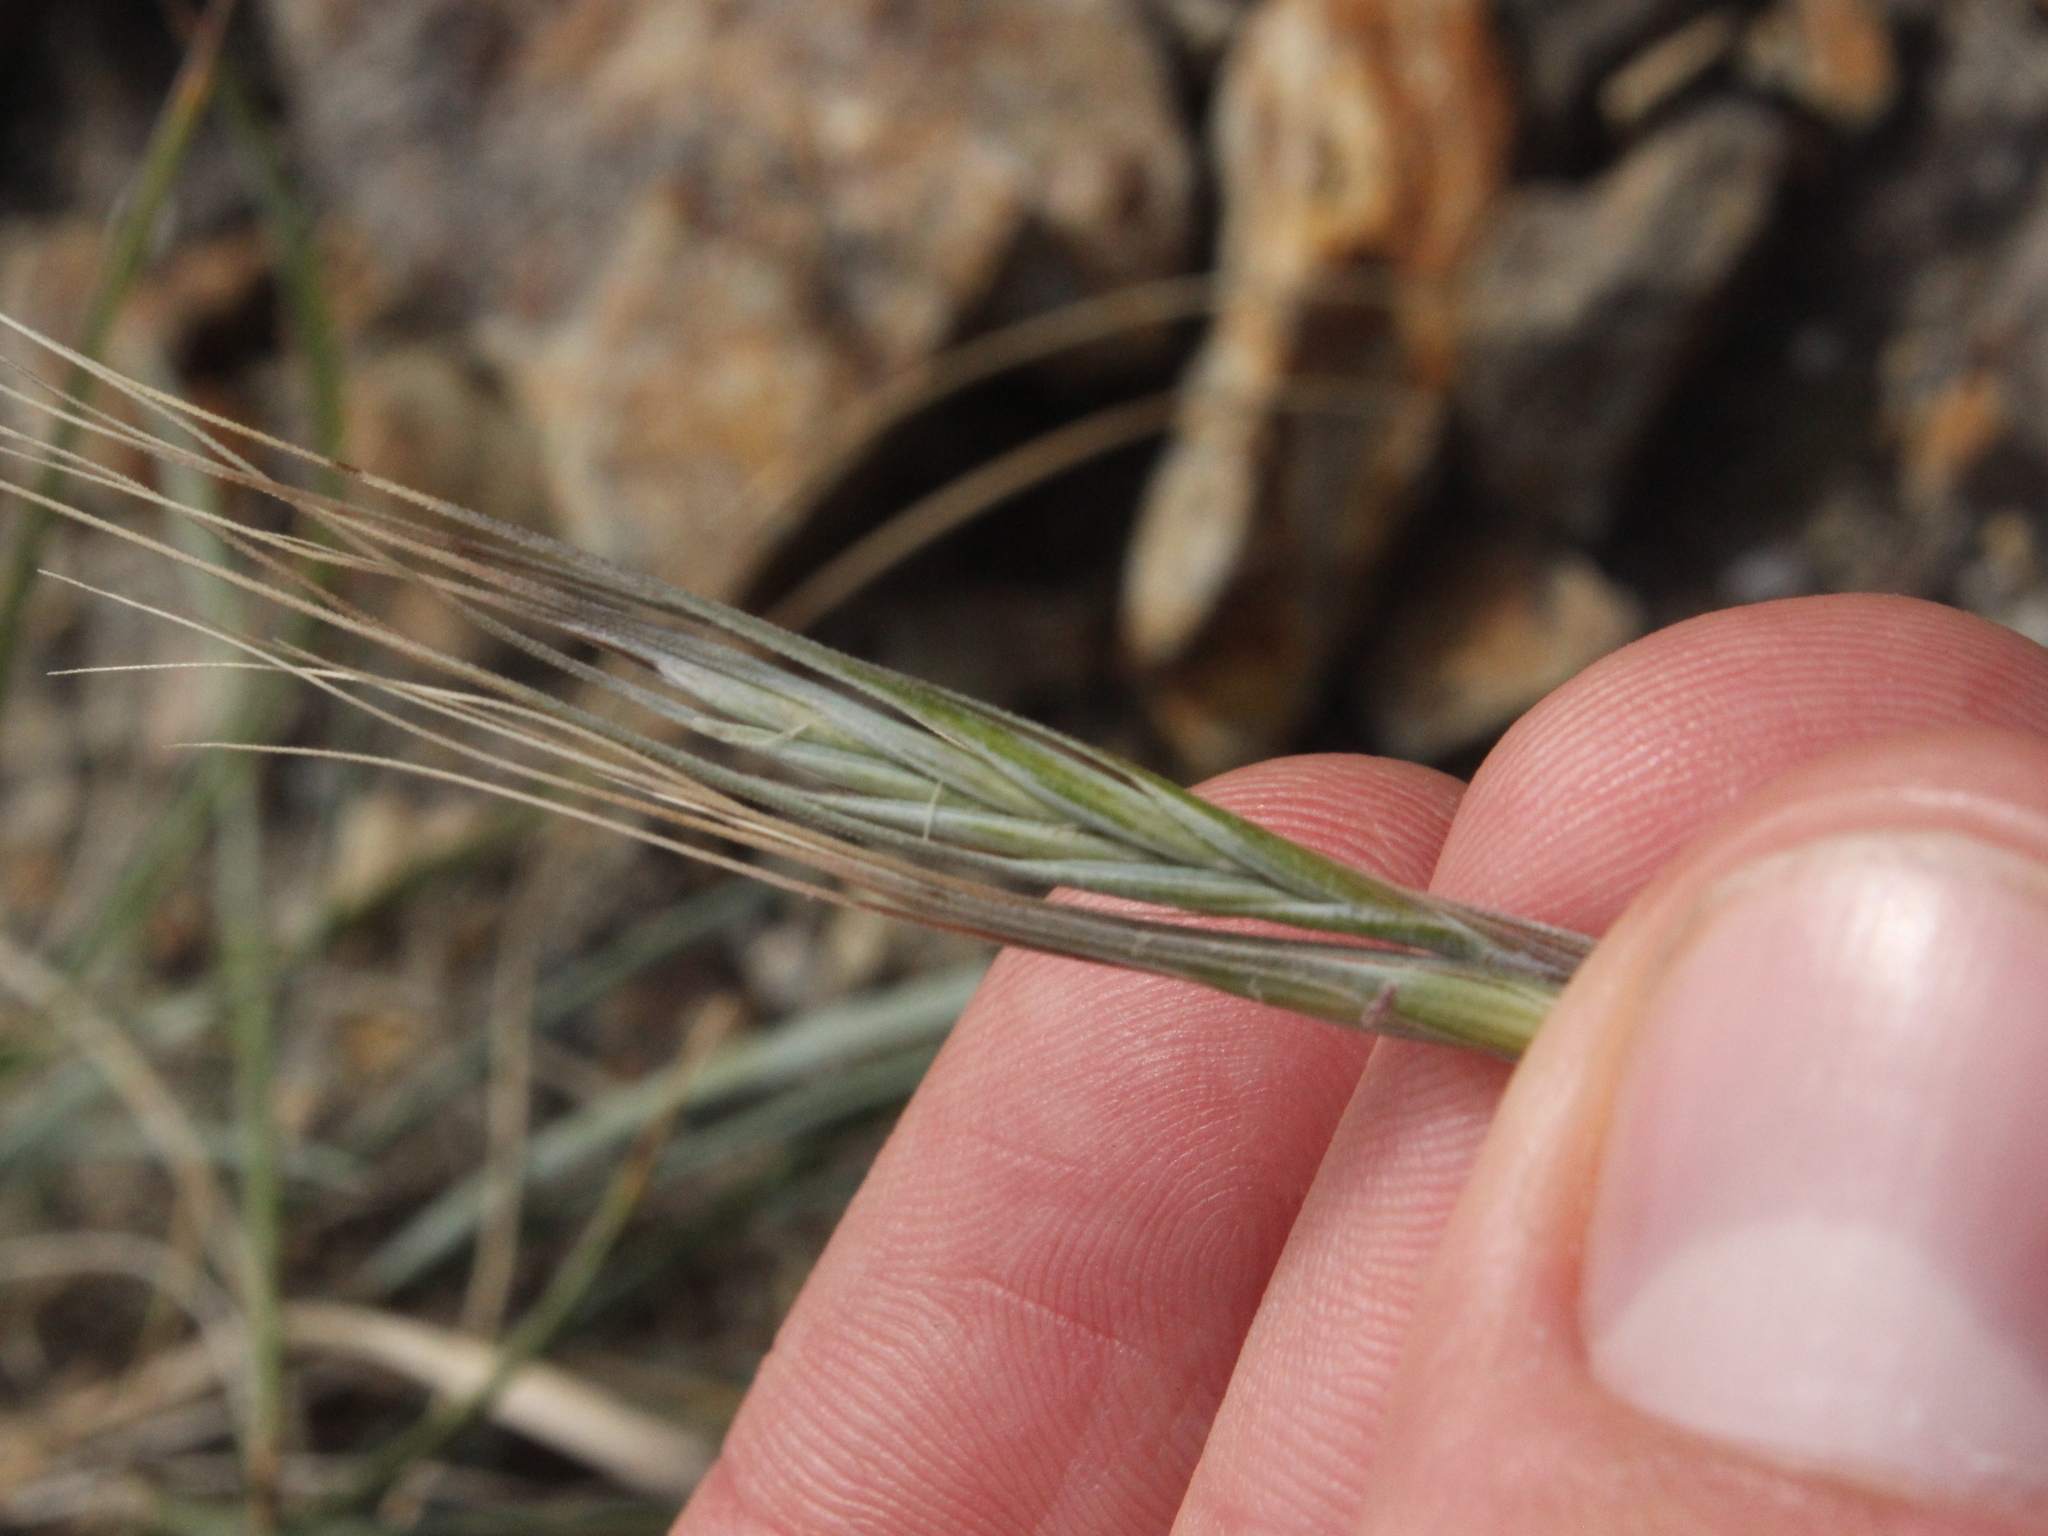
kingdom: Plantae
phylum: Tracheophyta
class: Liliopsida
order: Poales
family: Poaceae
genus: Anthosachne
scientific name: Anthosachne solandri
